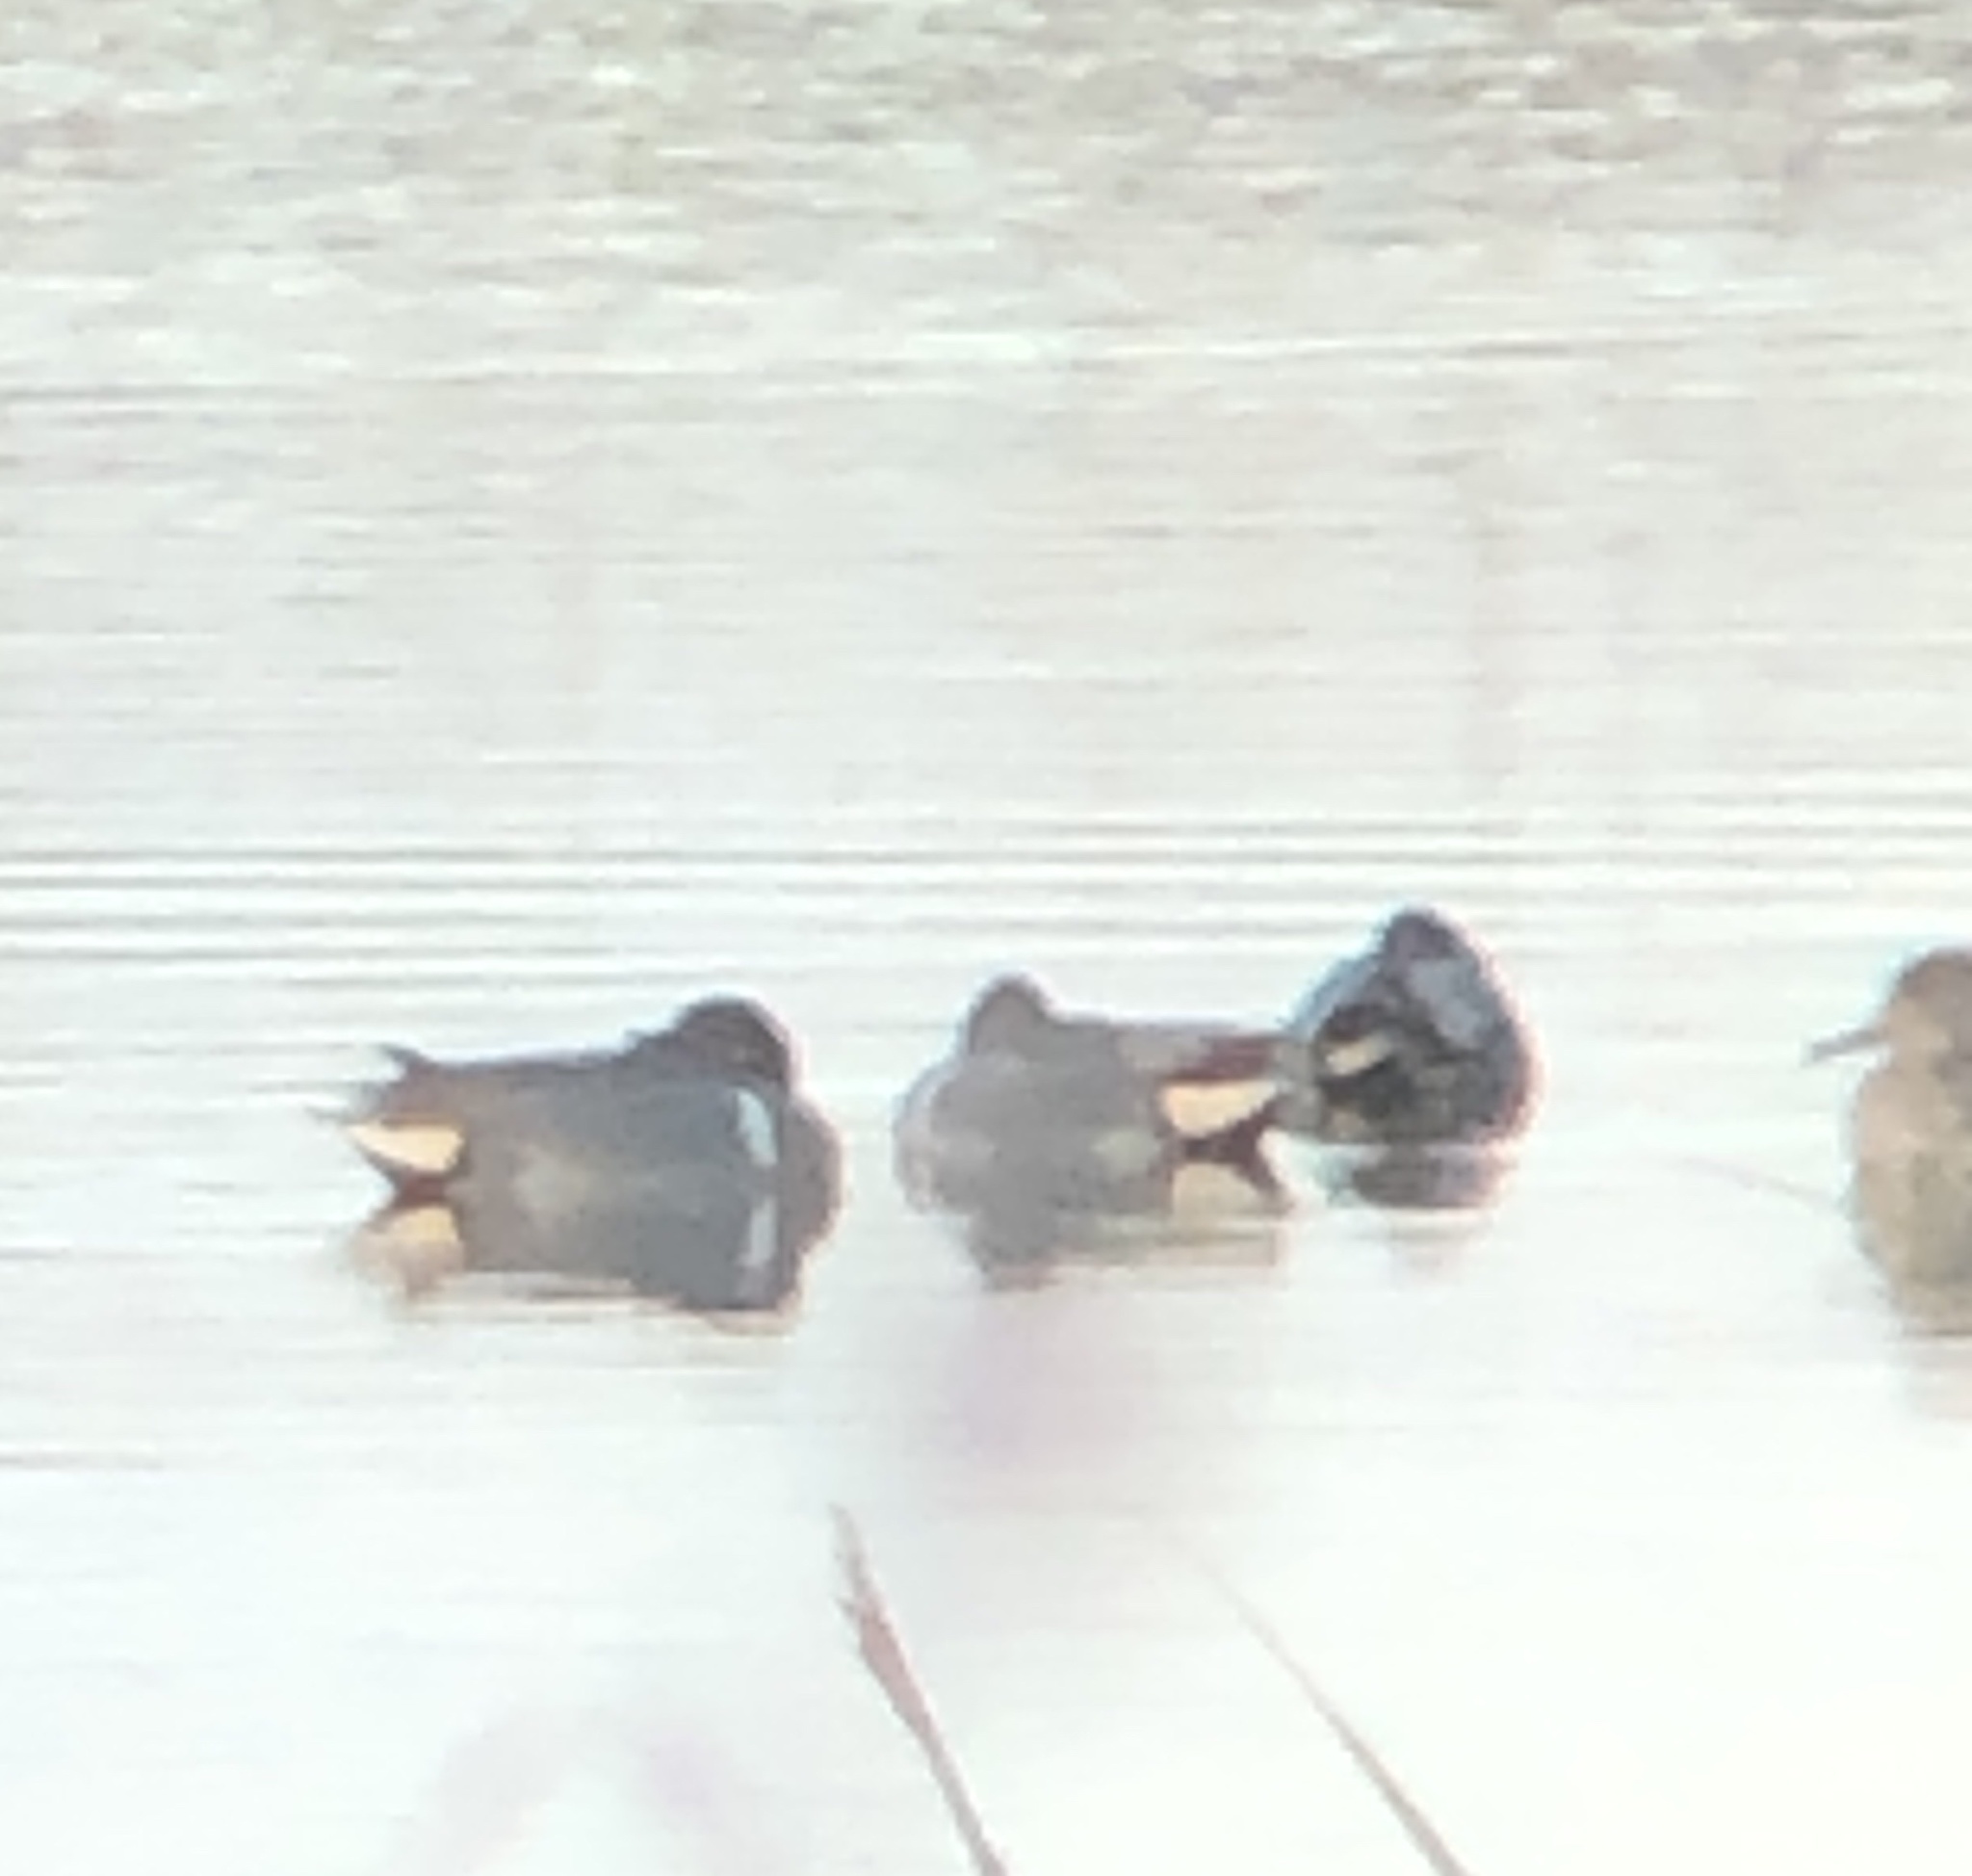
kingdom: Animalia
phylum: Chordata
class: Aves
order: Anseriformes
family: Anatidae
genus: Anas
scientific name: Anas crecca
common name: Eurasian teal
